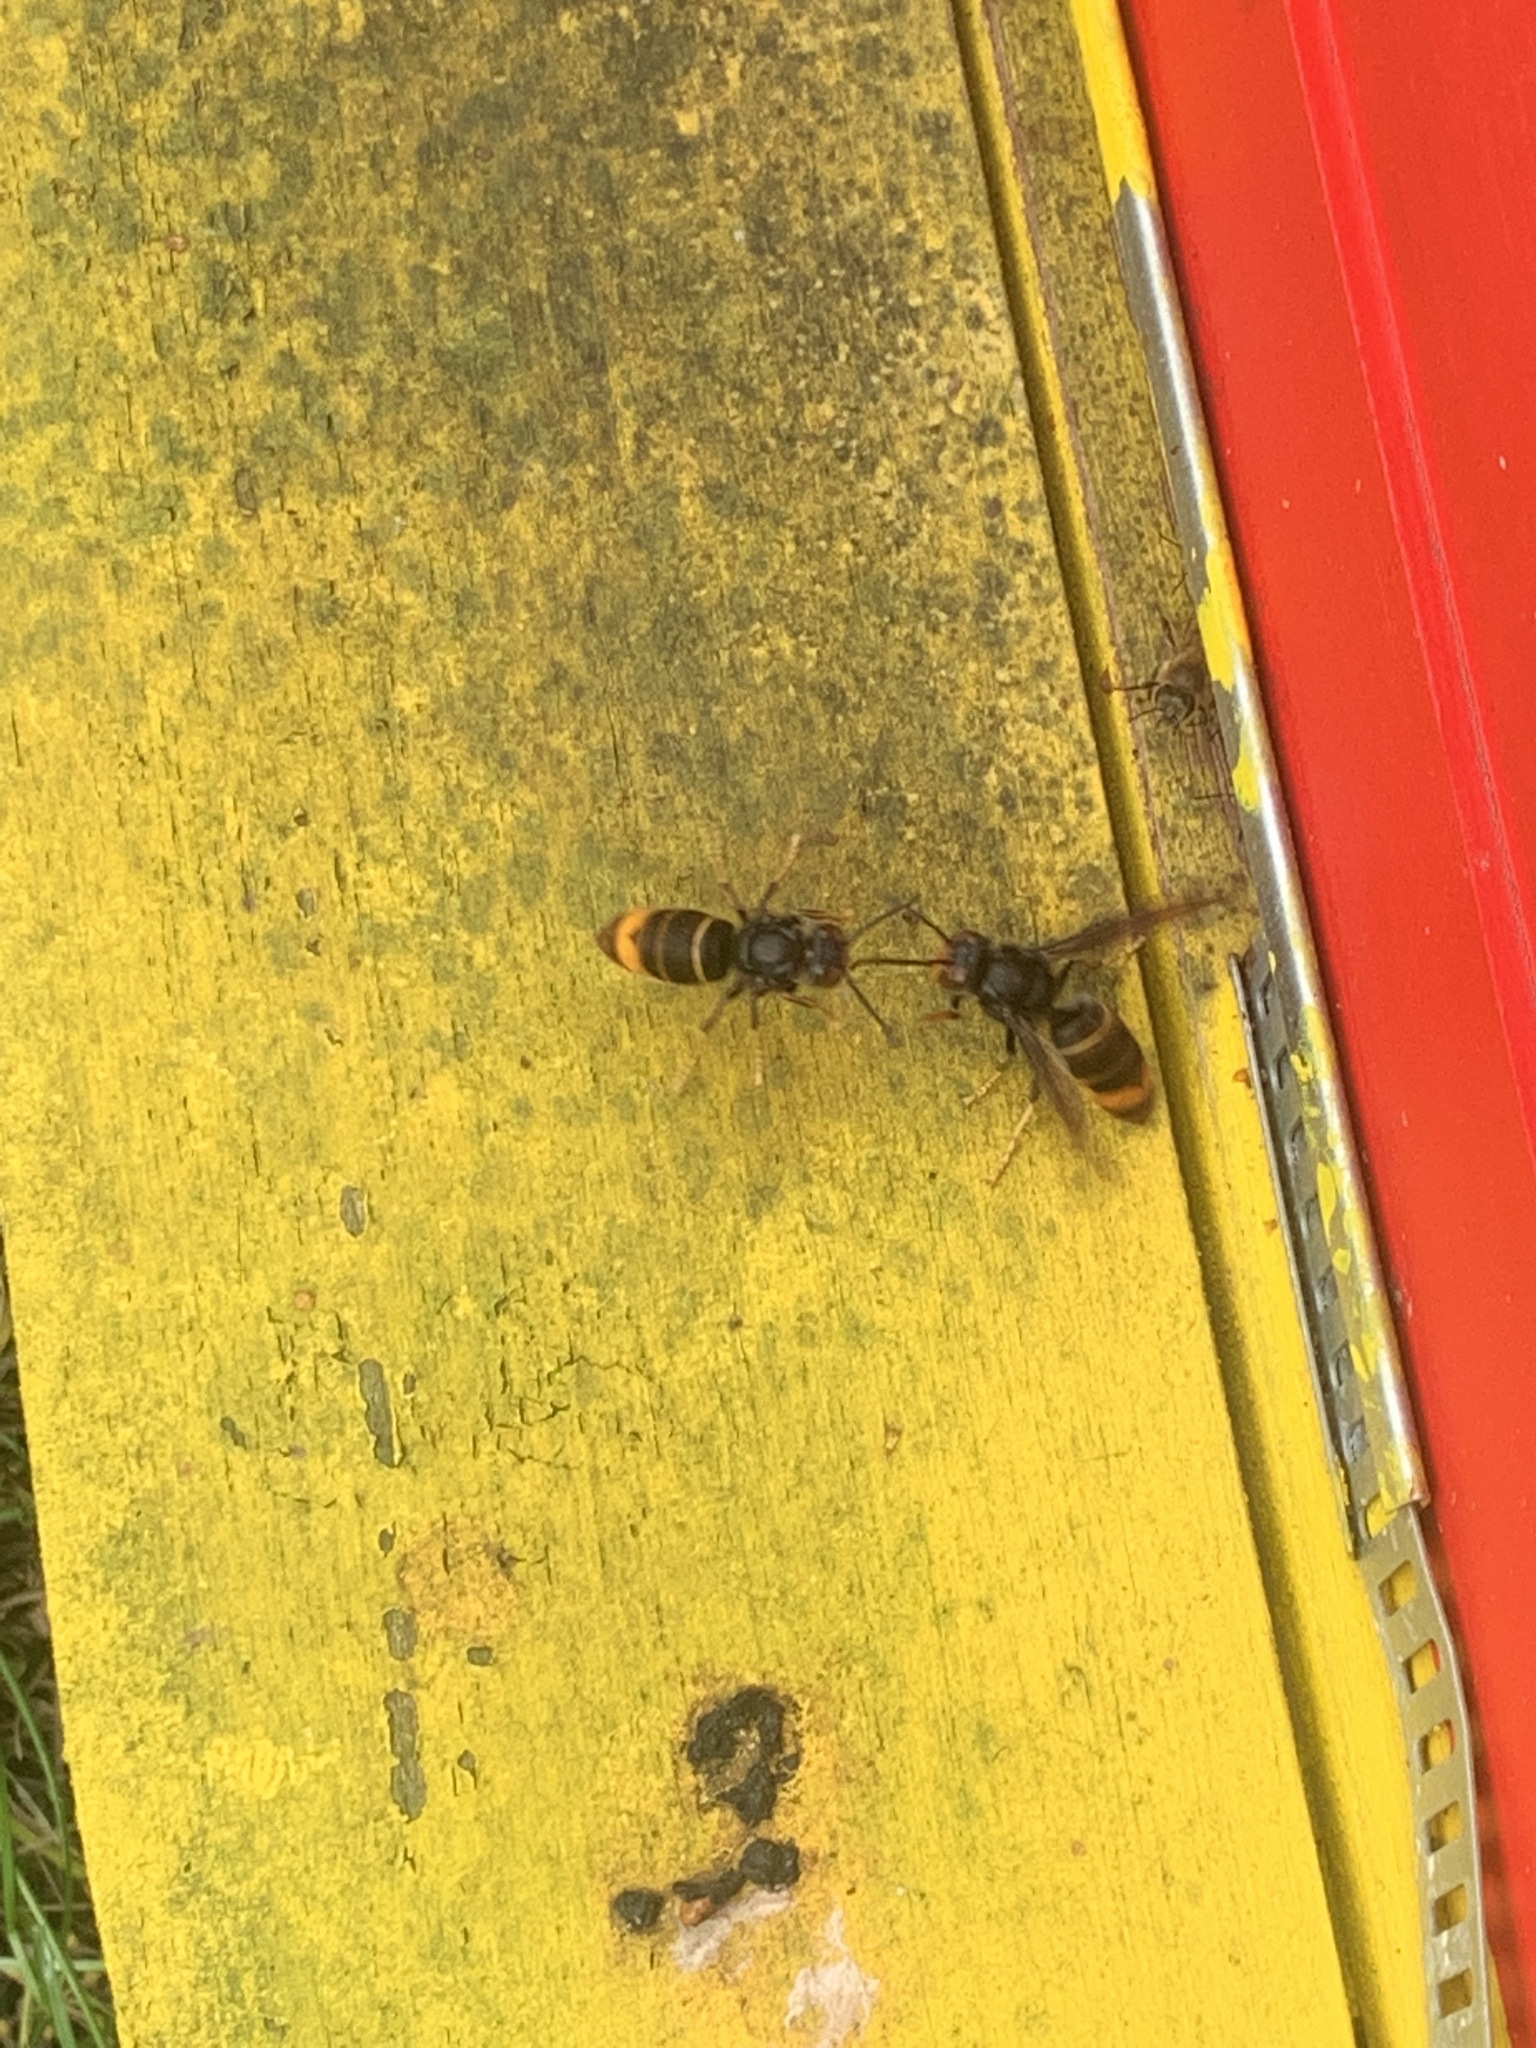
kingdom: Animalia
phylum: Arthropoda
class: Insecta
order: Hymenoptera
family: Vespidae
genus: Vespa
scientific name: Vespa velutina
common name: Asian hornet
